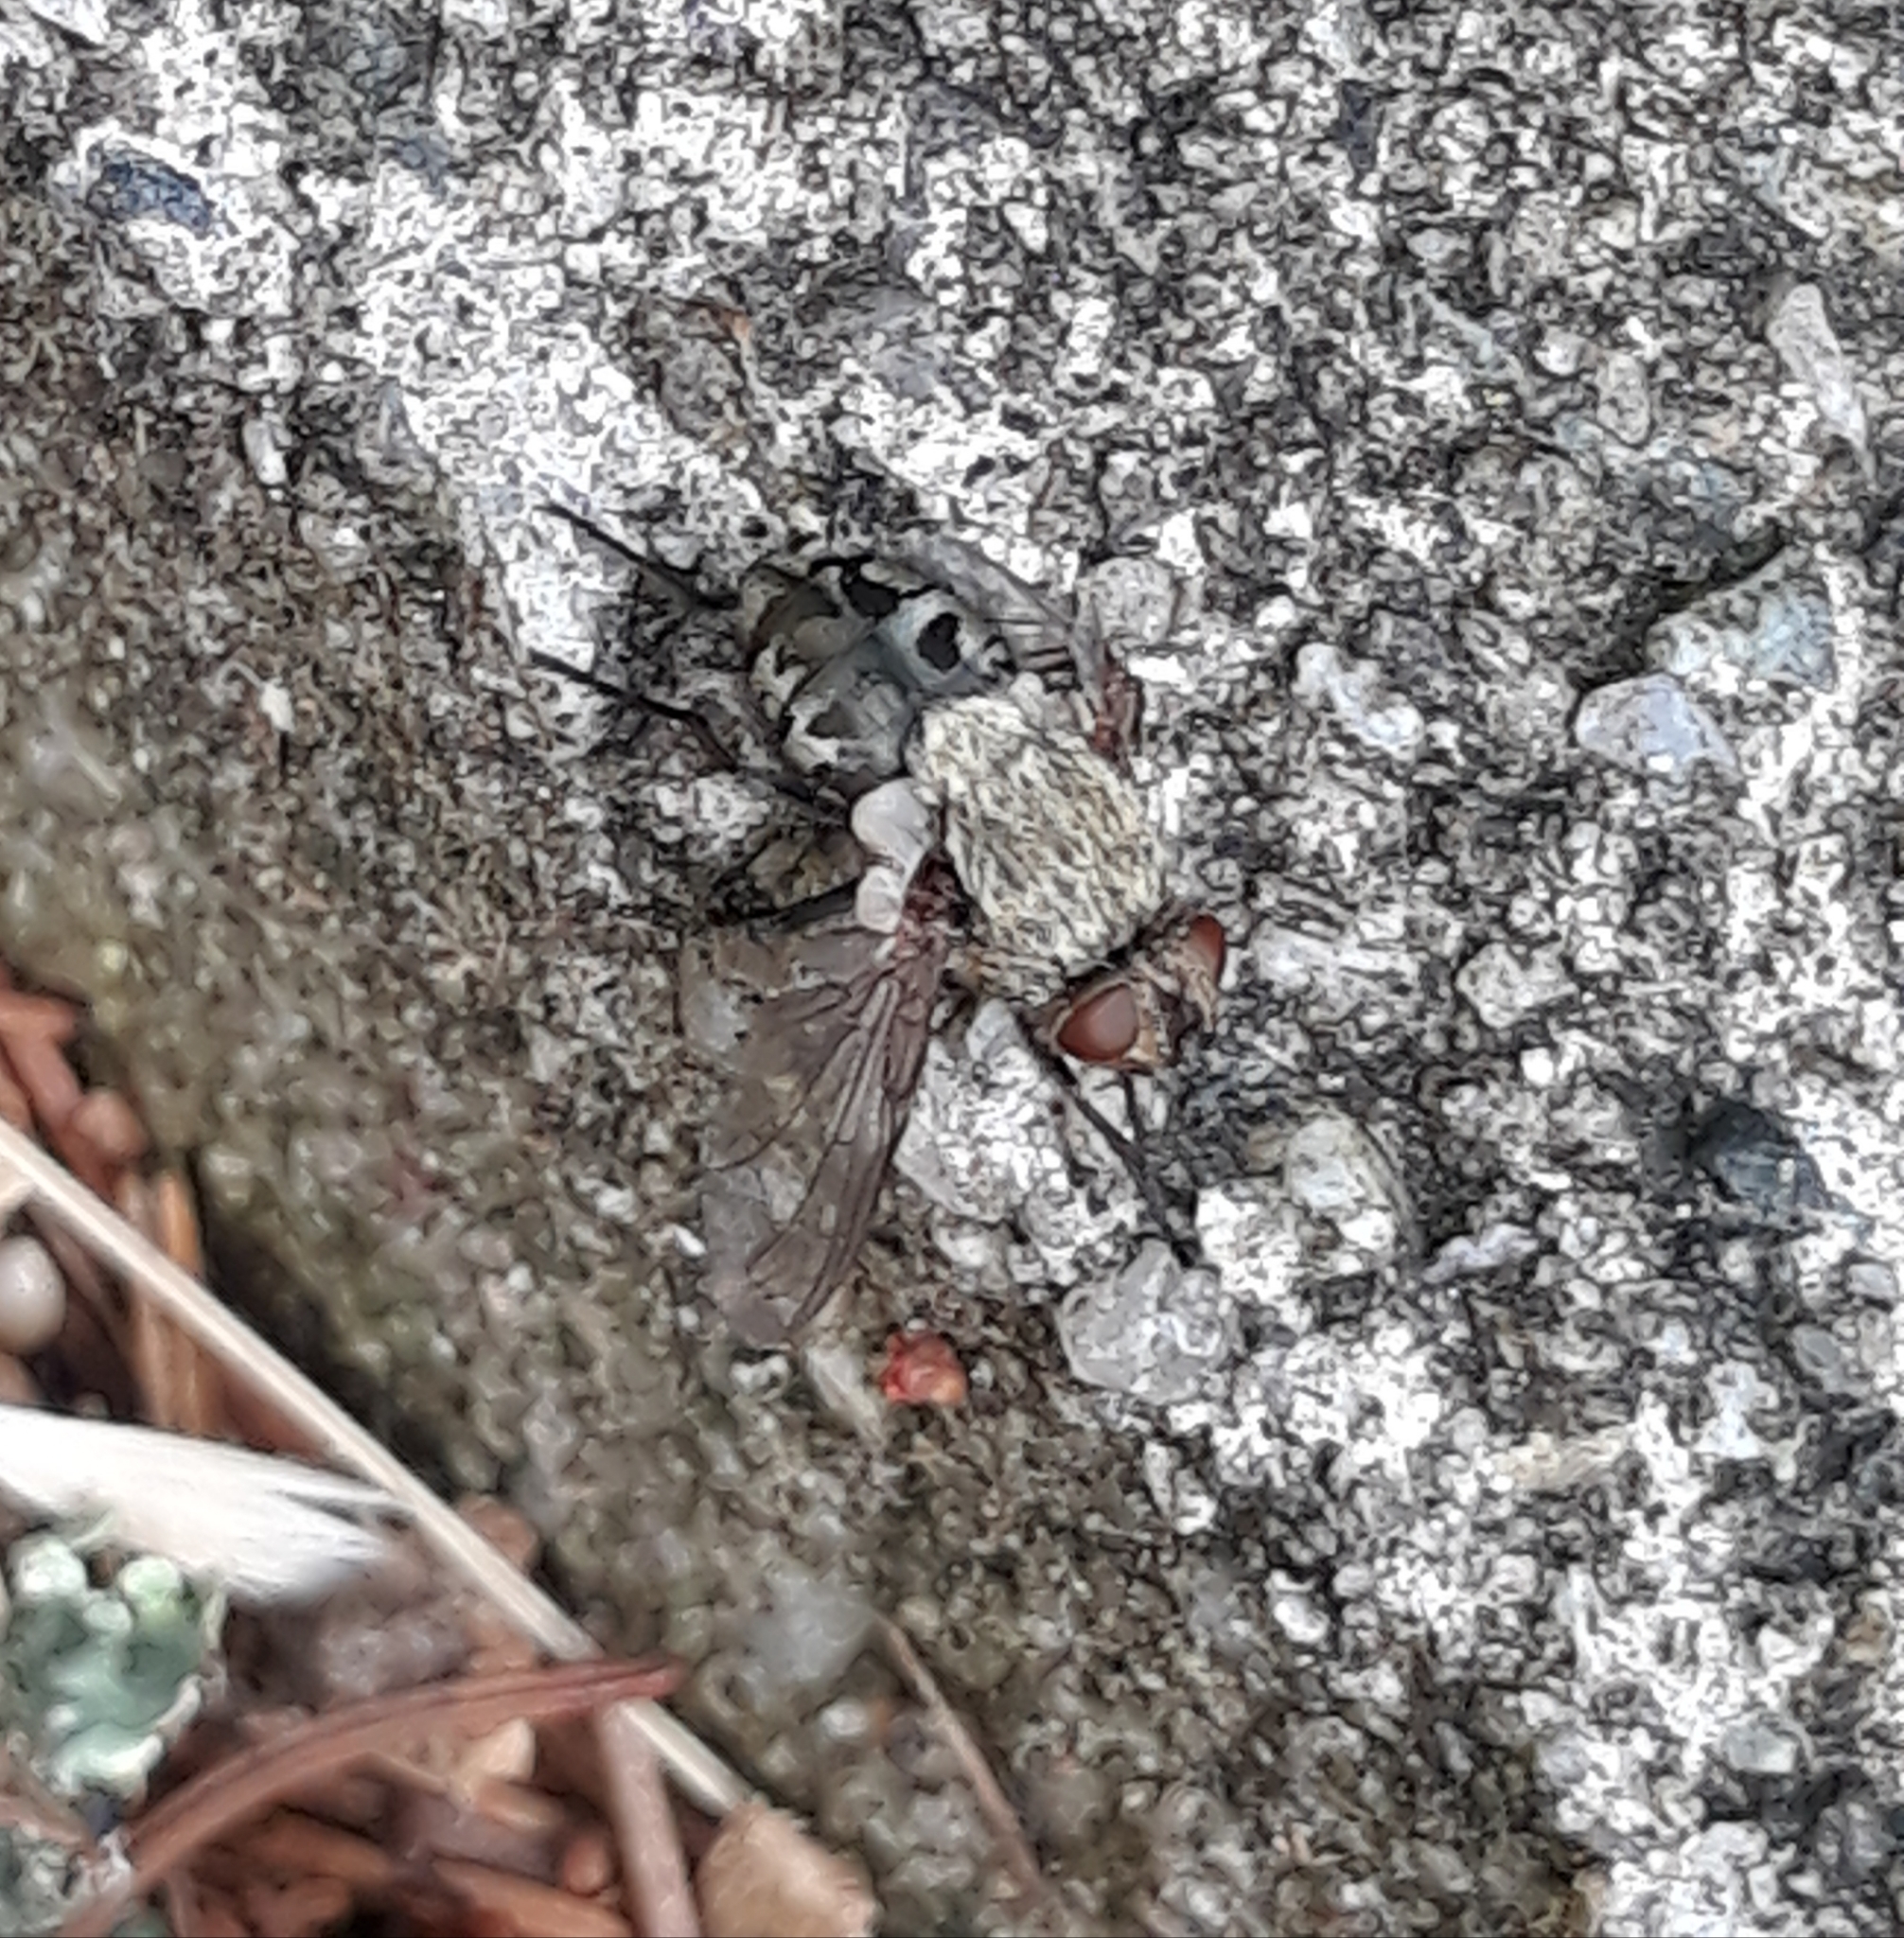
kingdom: Animalia
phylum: Arthropoda
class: Insecta
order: Diptera
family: Polleniidae
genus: Pollenia
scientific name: Pollenia
